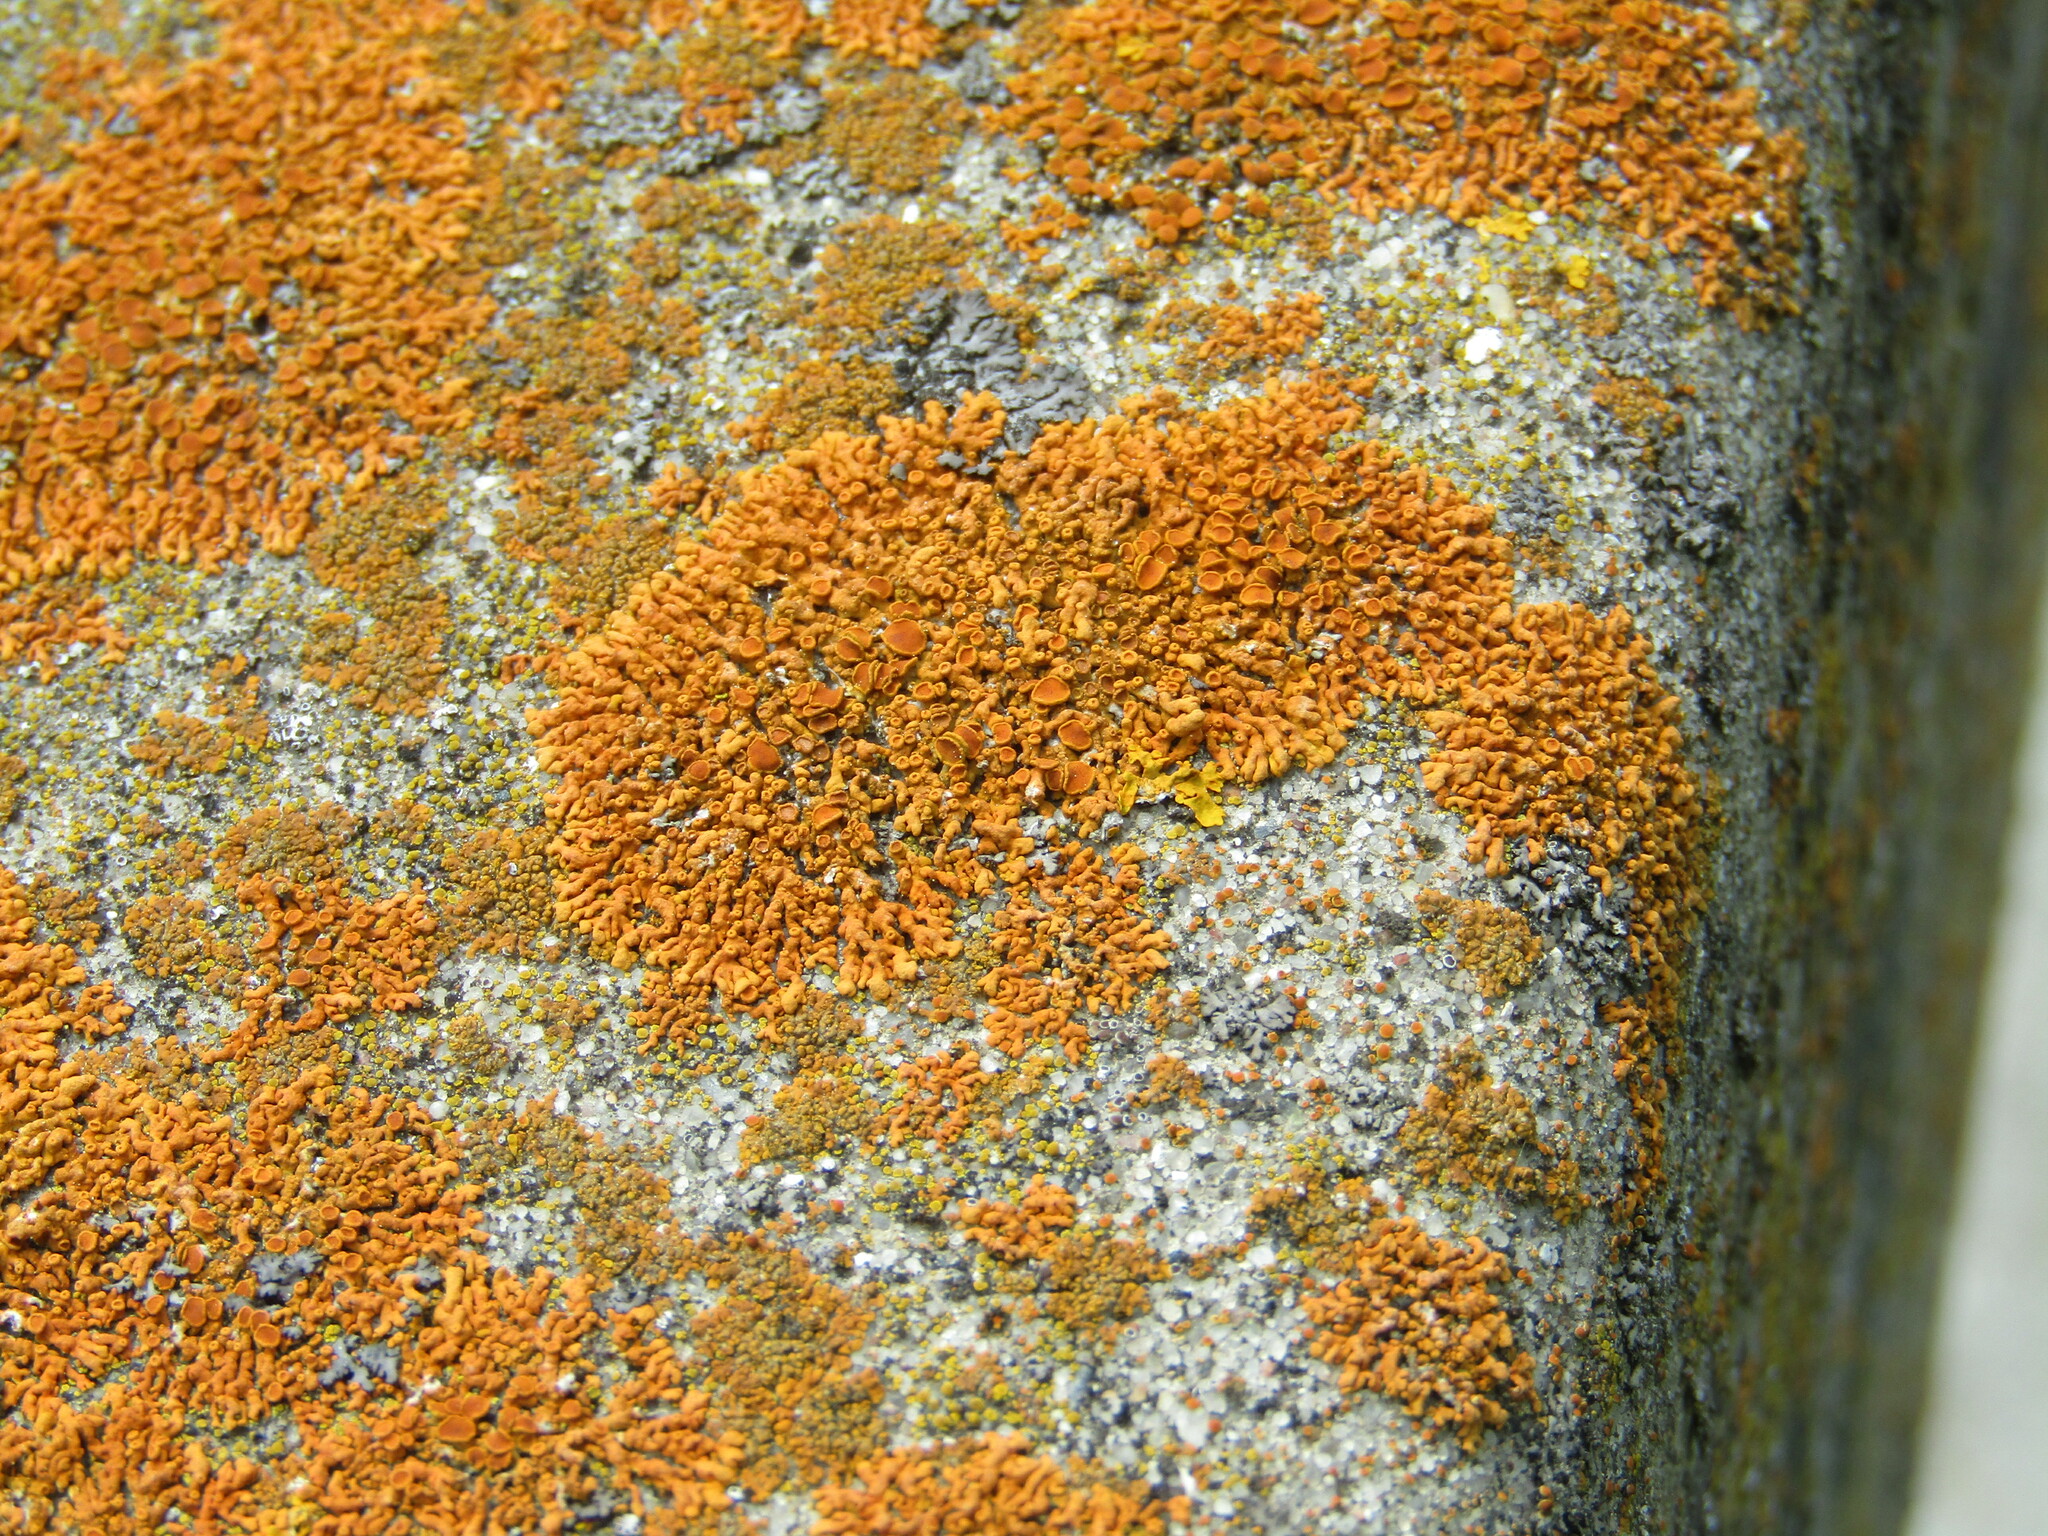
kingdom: Fungi
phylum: Ascomycota
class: Lecanoromycetes
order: Teloschistales
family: Teloschistaceae
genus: Xanthoria
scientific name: Xanthoria elegans
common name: Elegant sunburst lichen
